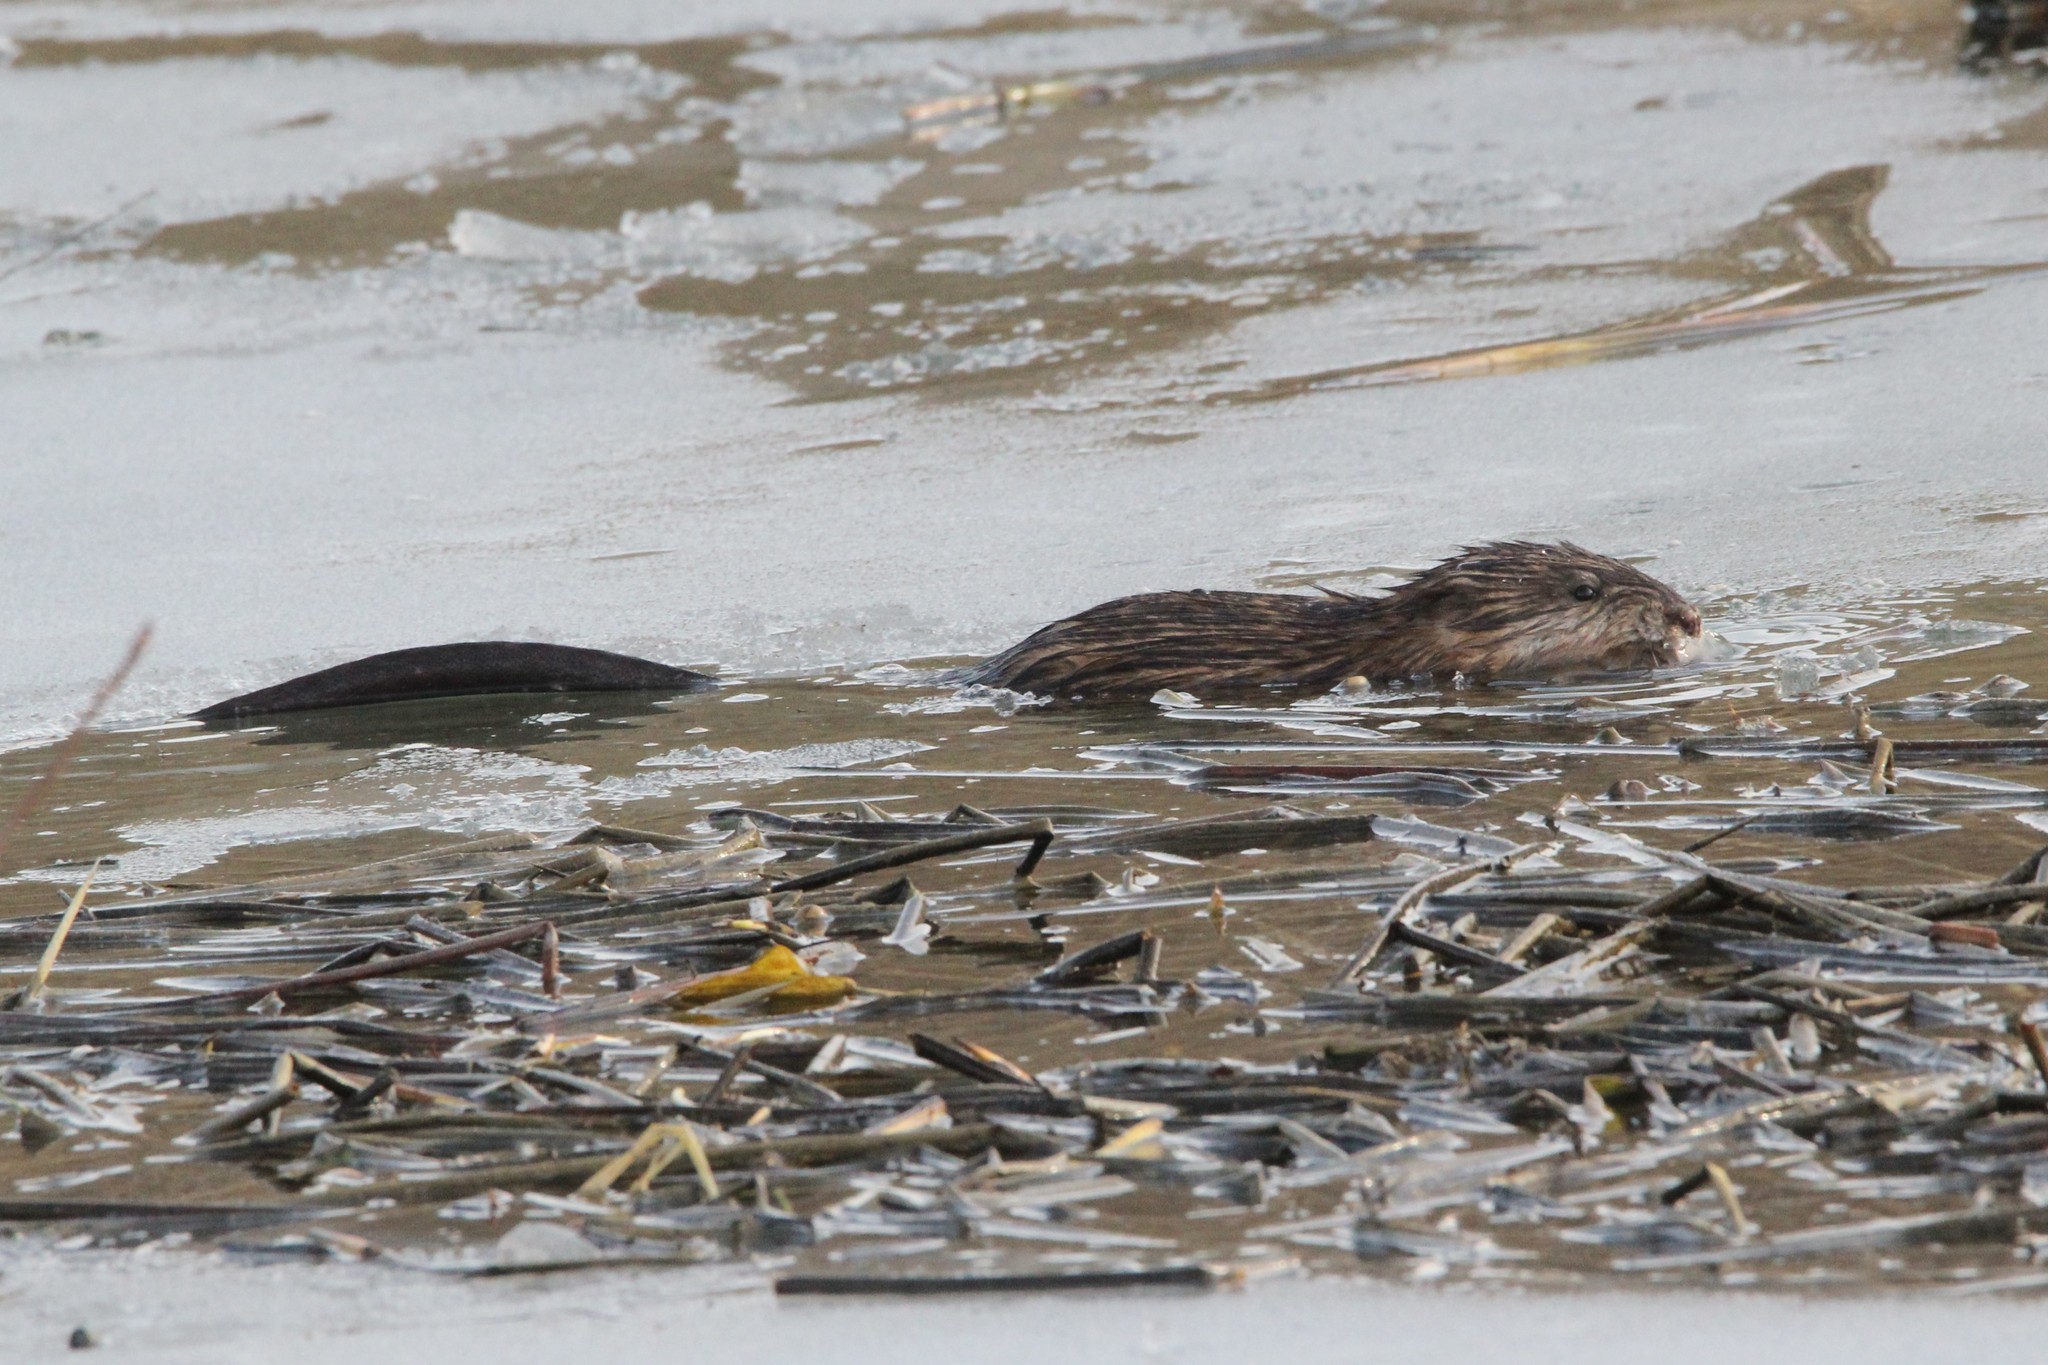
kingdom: Animalia
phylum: Chordata
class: Mammalia
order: Rodentia
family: Cricetidae
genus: Ondatra
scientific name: Ondatra zibethicus
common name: Muskrat
